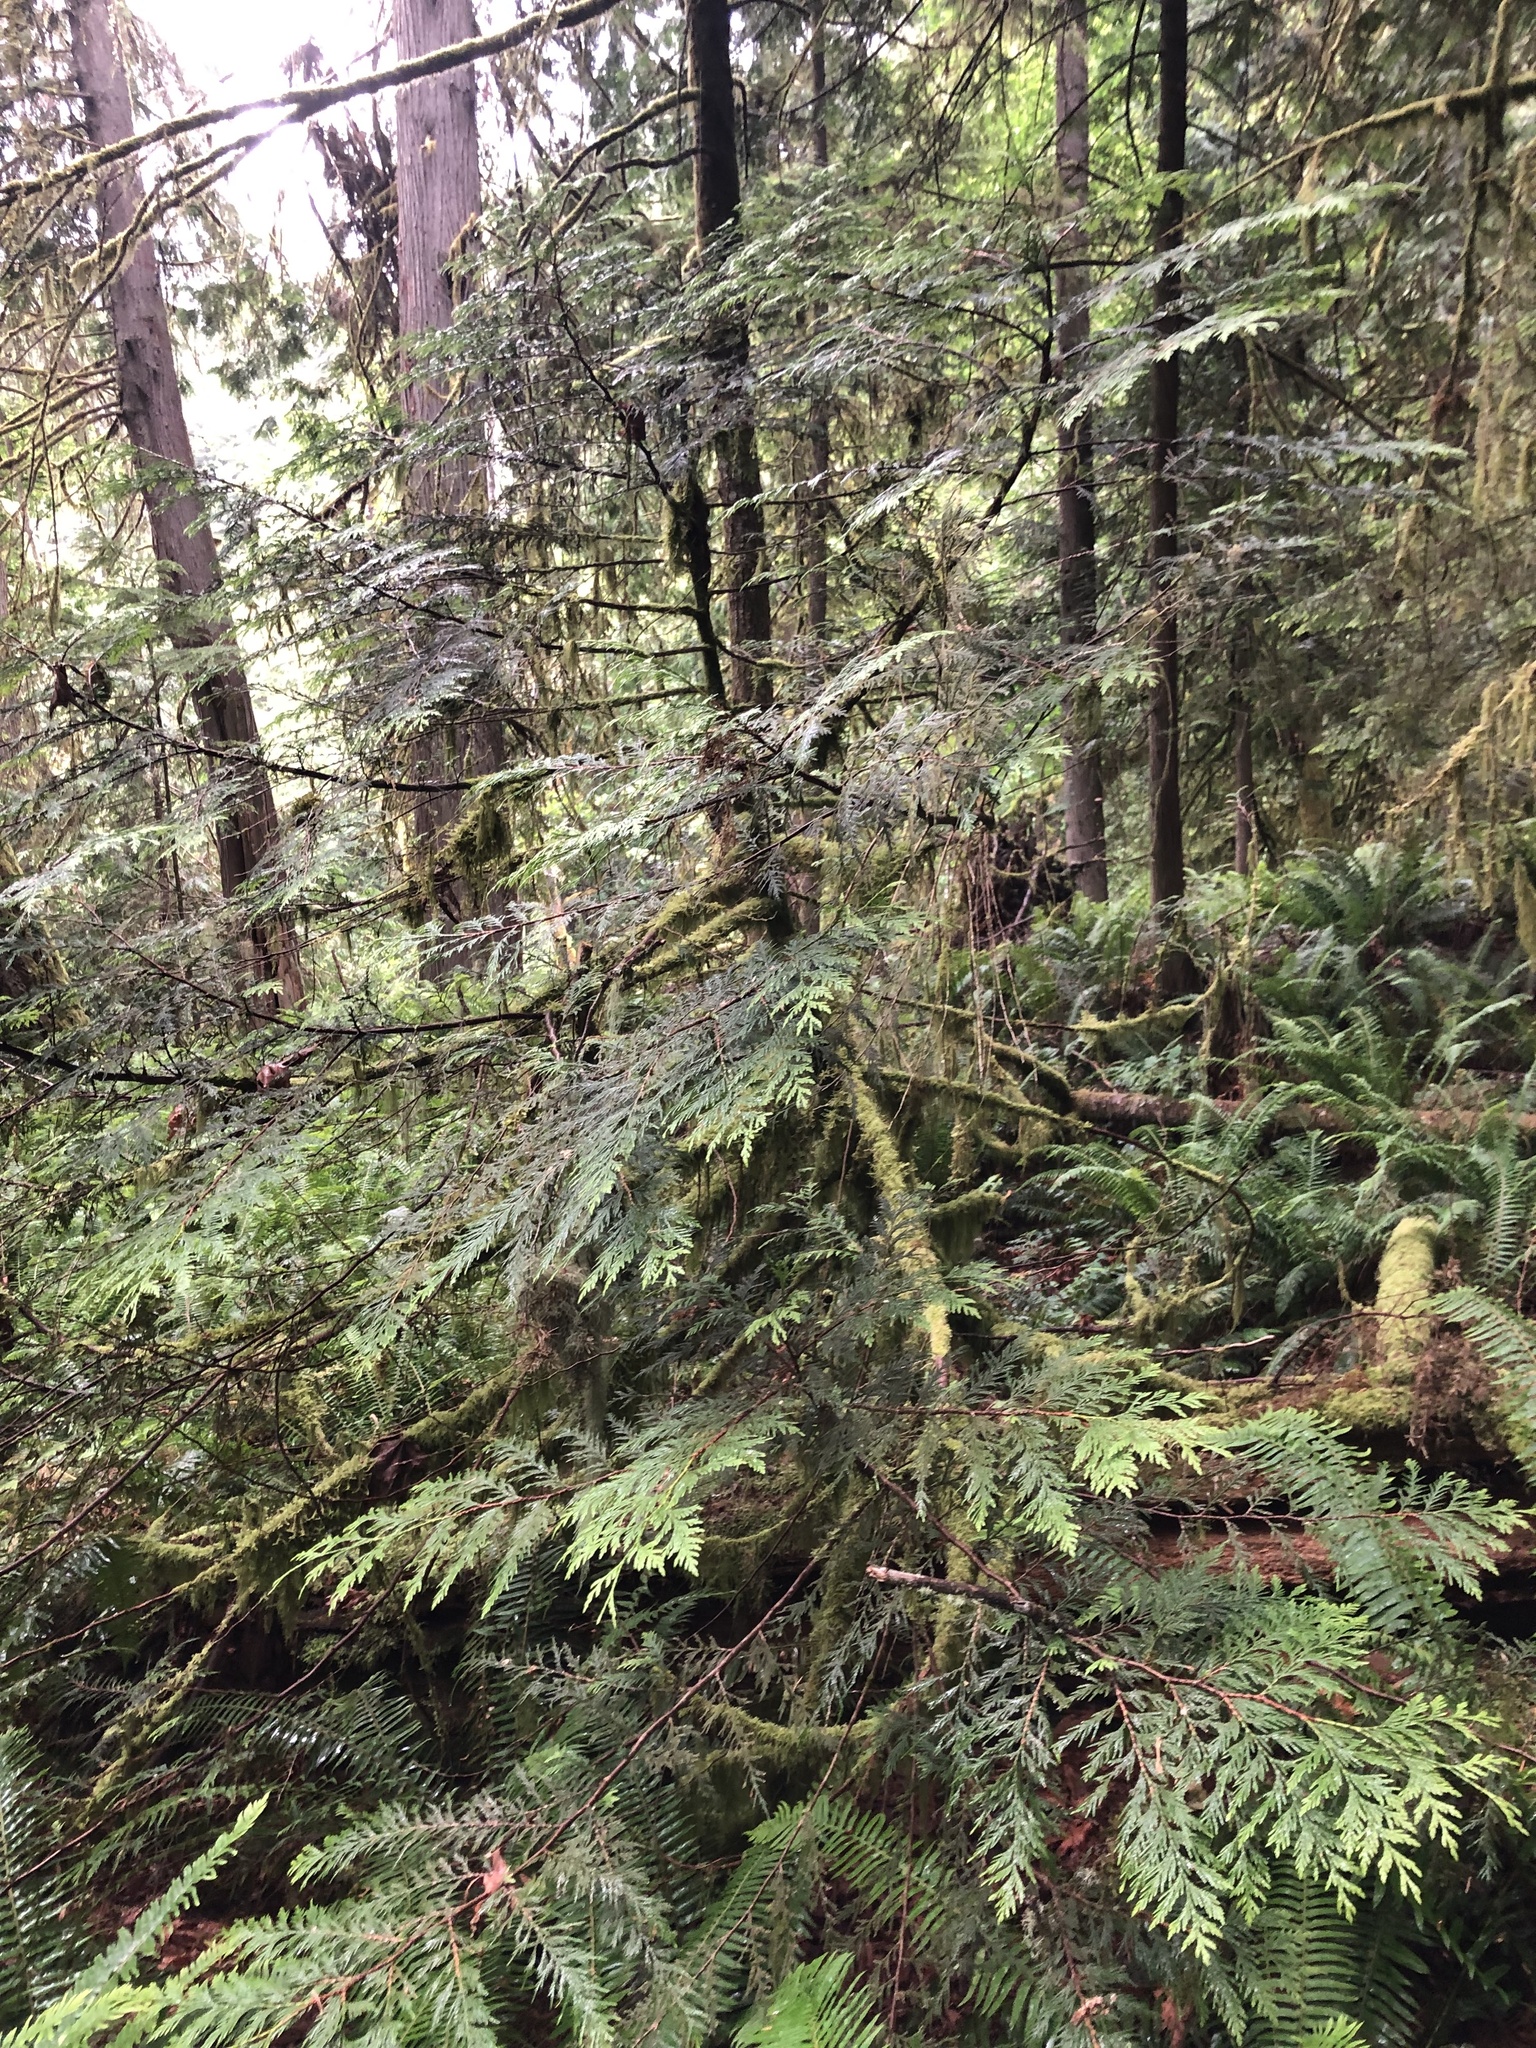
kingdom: Plantae
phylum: Tracheophyta
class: Pinopsida
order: Pinales
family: Cupressaceae
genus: Thuja
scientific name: Thuja plicata
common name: Western red-cedar
